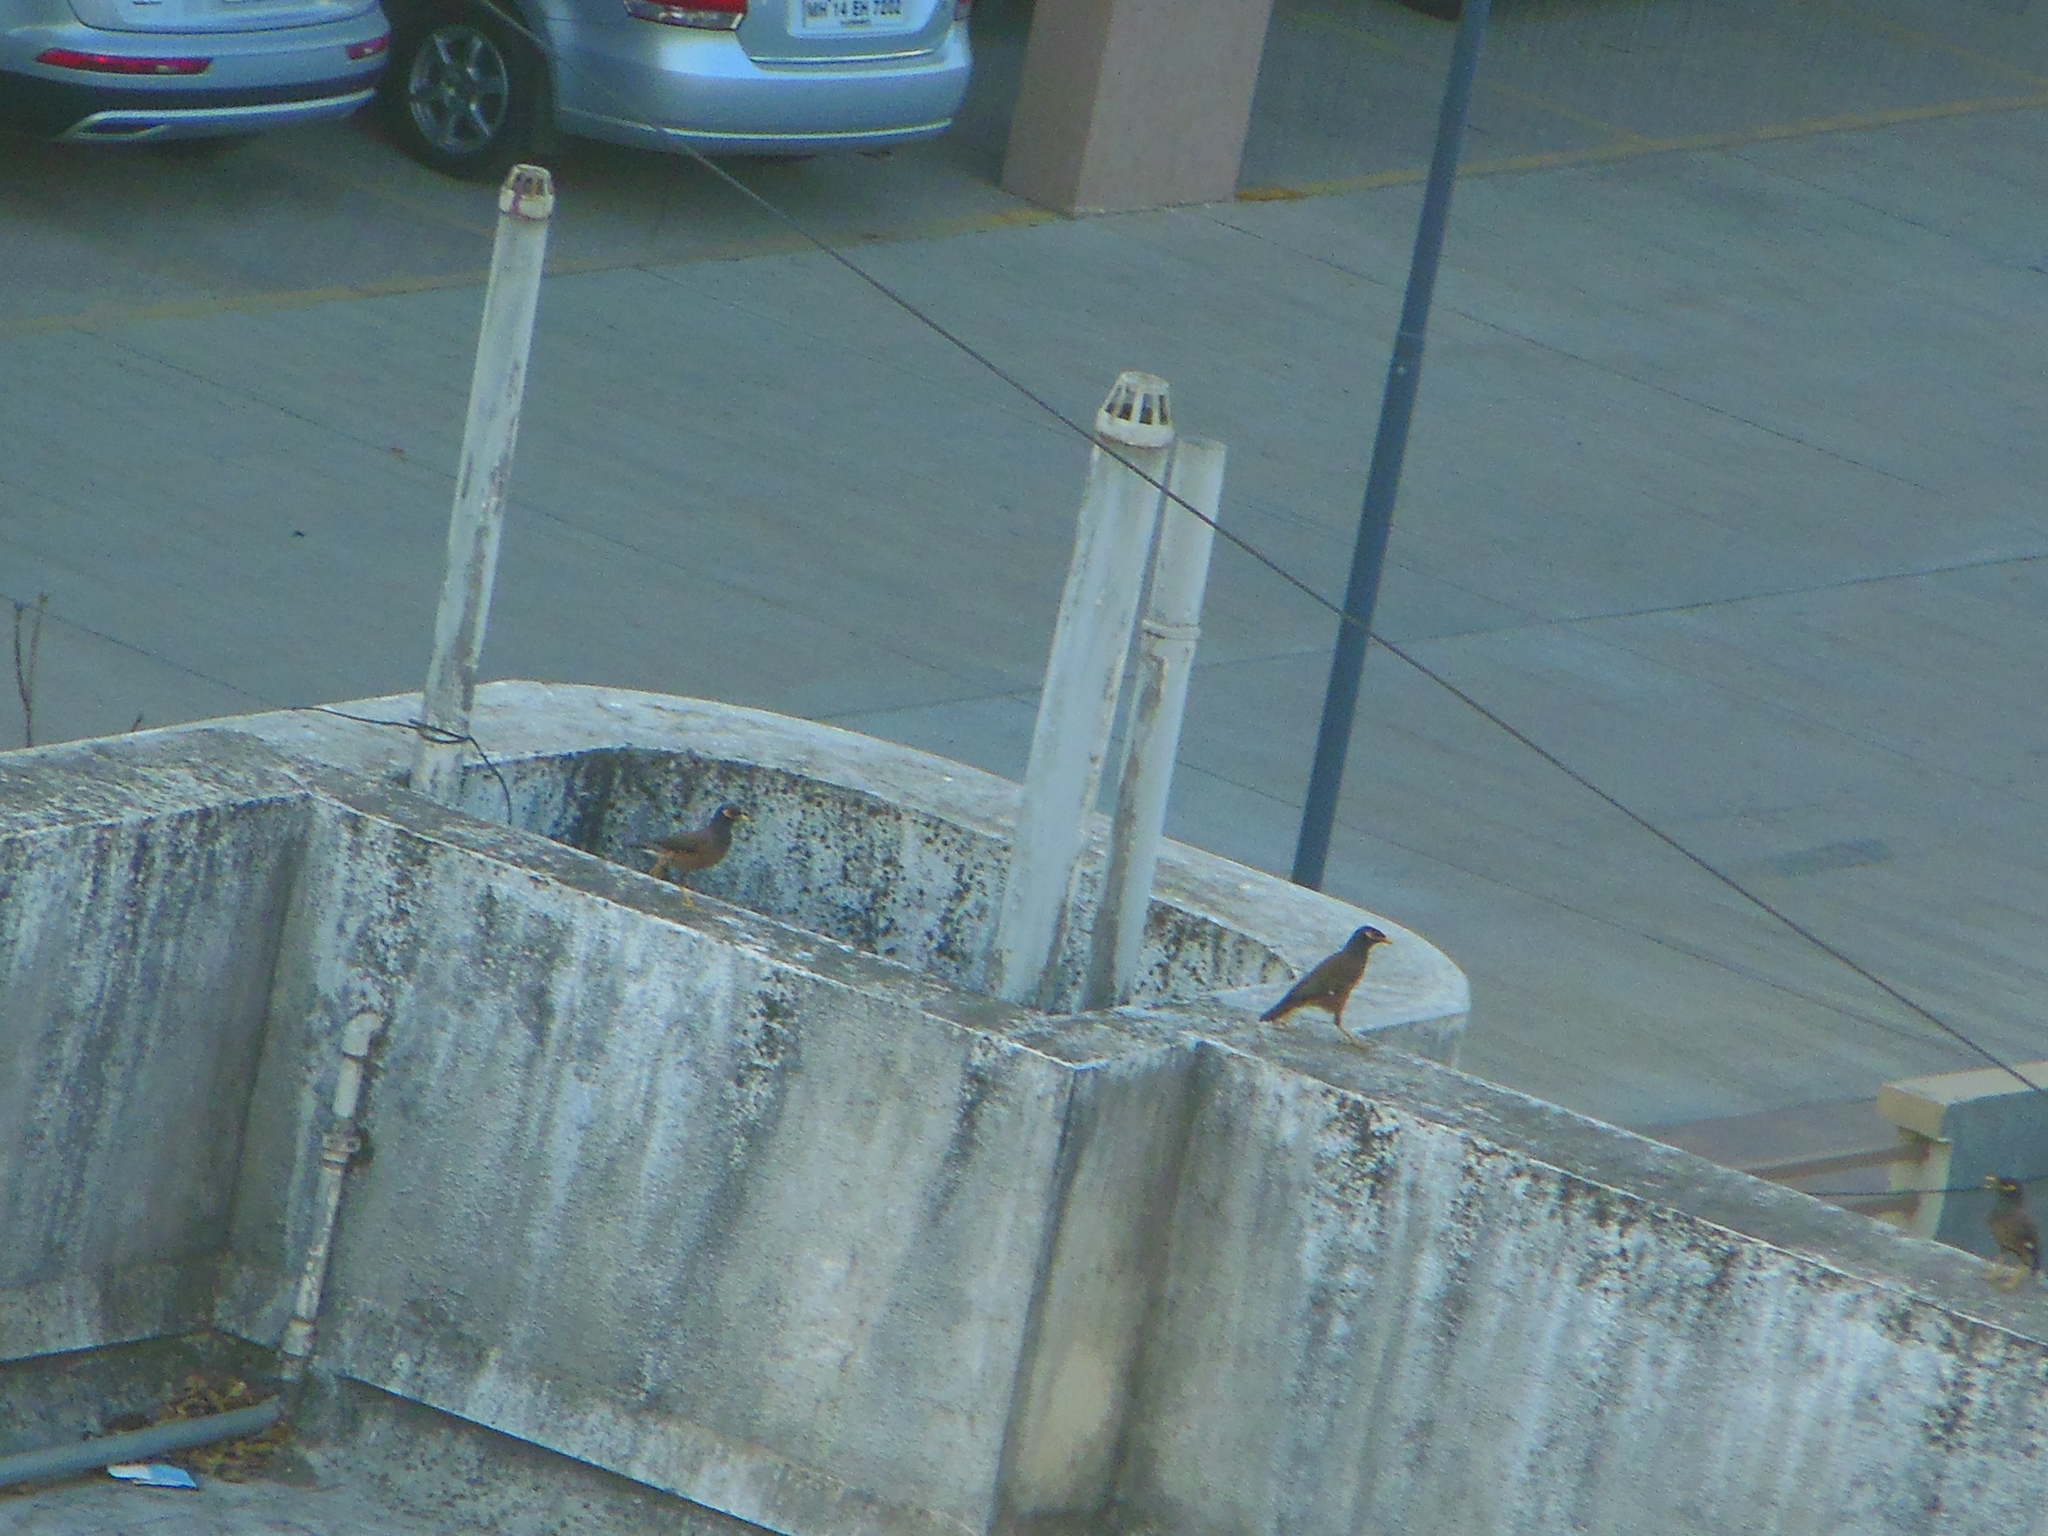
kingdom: Animalia
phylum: Chordata
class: Aves
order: Passeriformes
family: Sturnidae
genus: Acridotheres
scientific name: Acridotheres tristis
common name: Common myna
